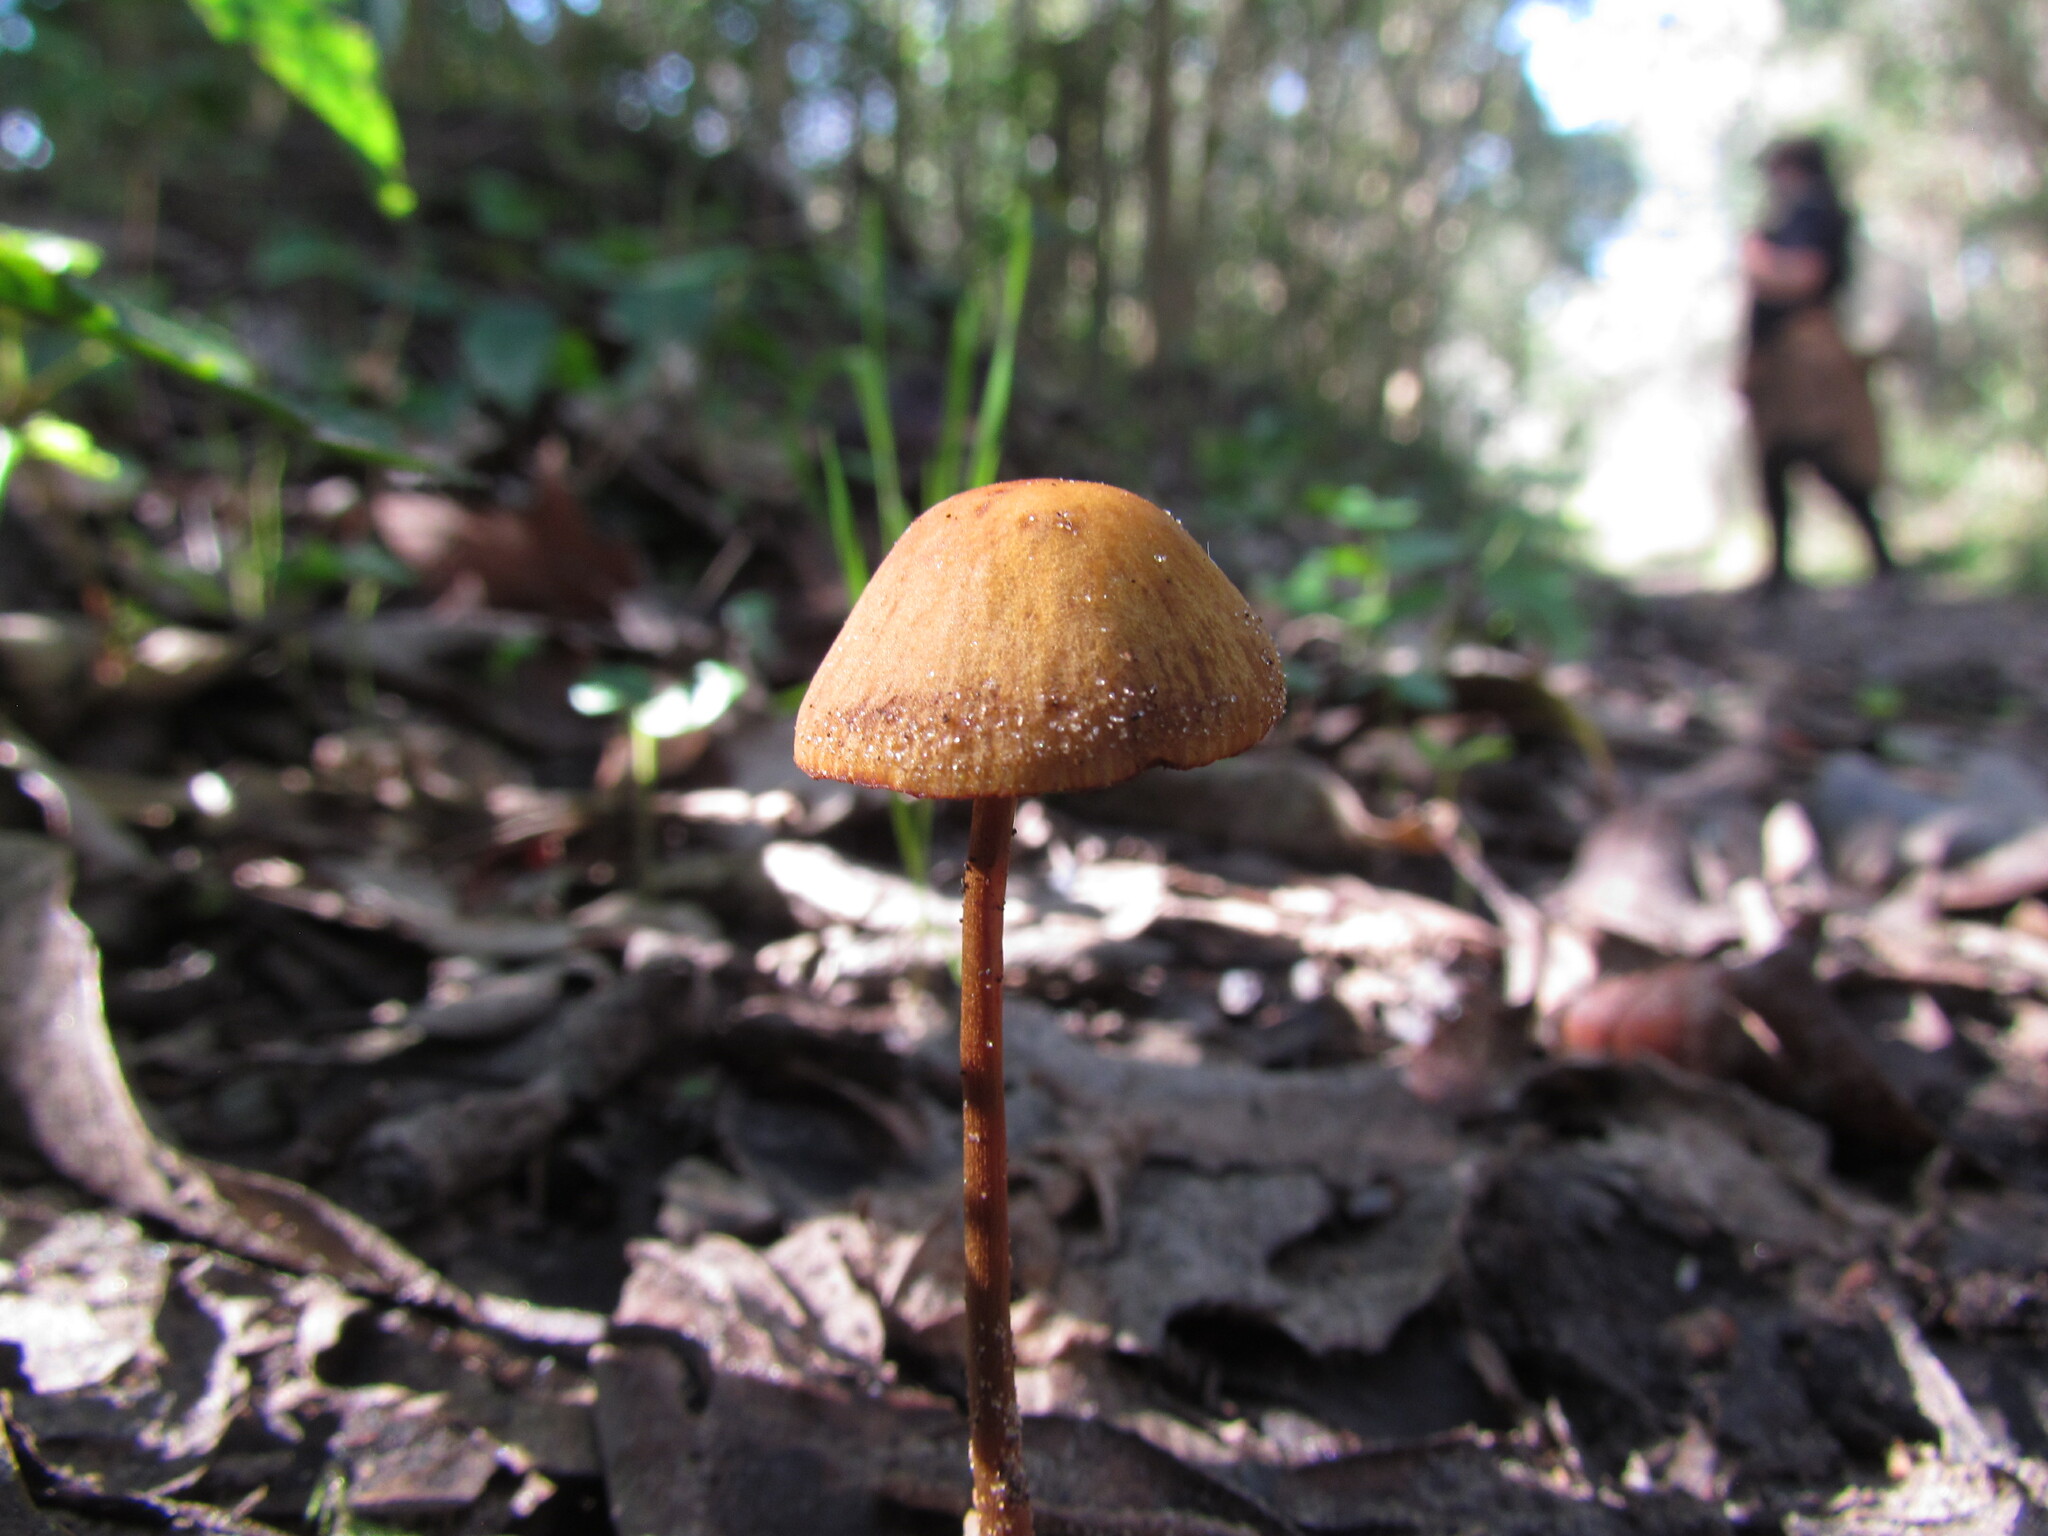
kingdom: Fungi
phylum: Basidiomycota
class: Agaricomycetes
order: Agaricales
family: Bolbitiaceae
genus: Conocybe
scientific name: Conocybe tenera
